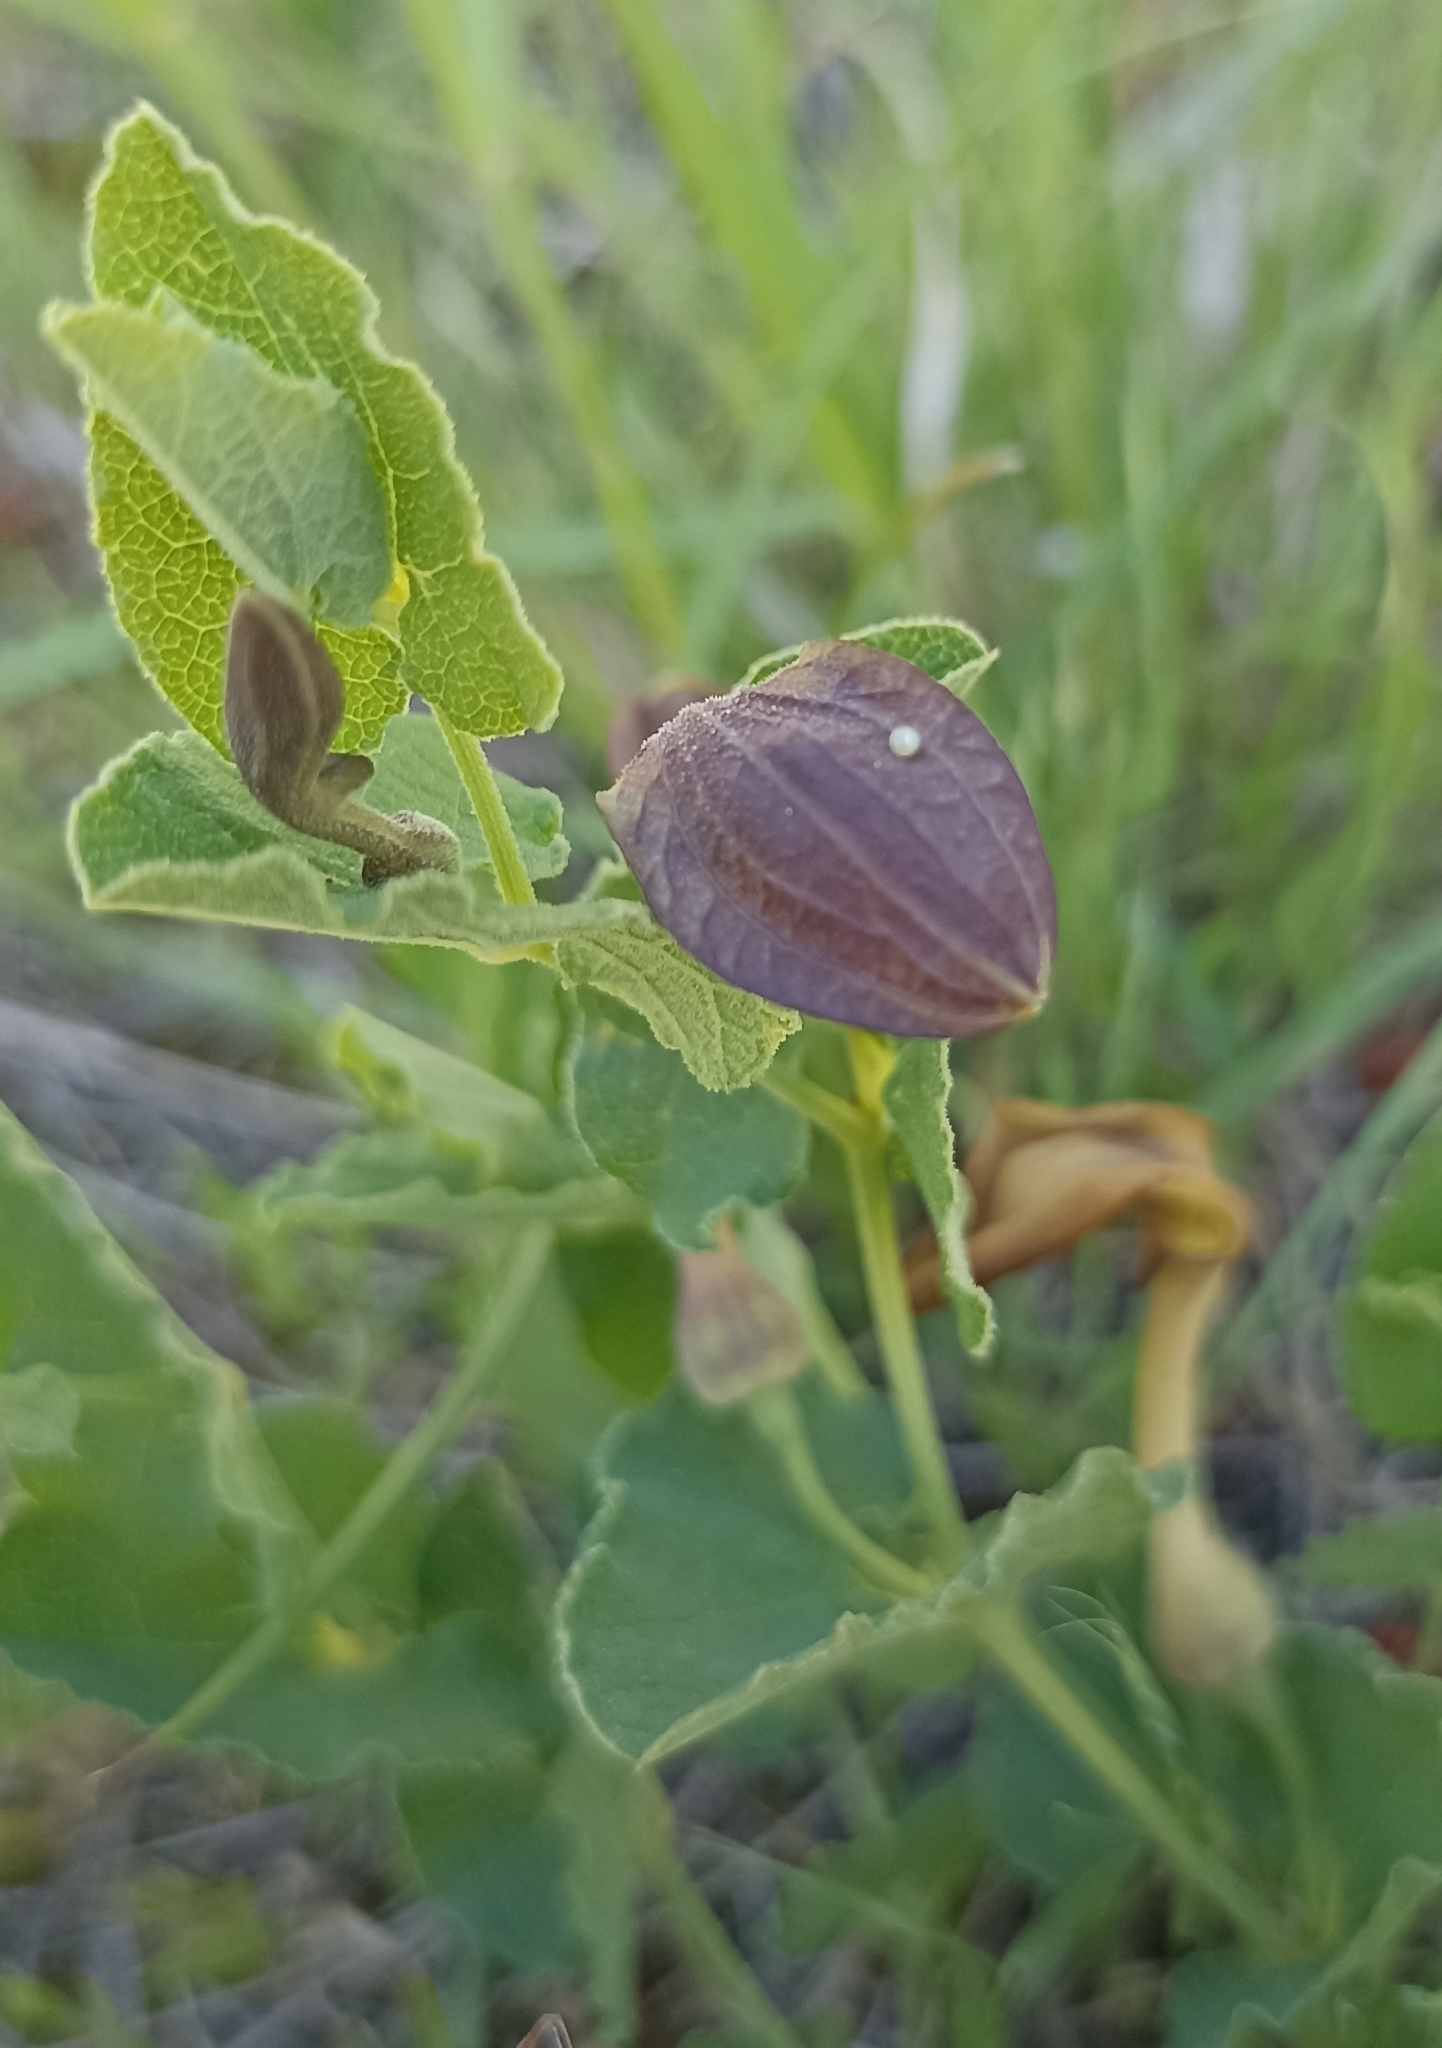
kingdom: Animalia
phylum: Arthropoda
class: Insecta
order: Lepidoptera
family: Papilionidae
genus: Zerynthia
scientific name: Zerynthia rumina
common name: Spanish festoon
